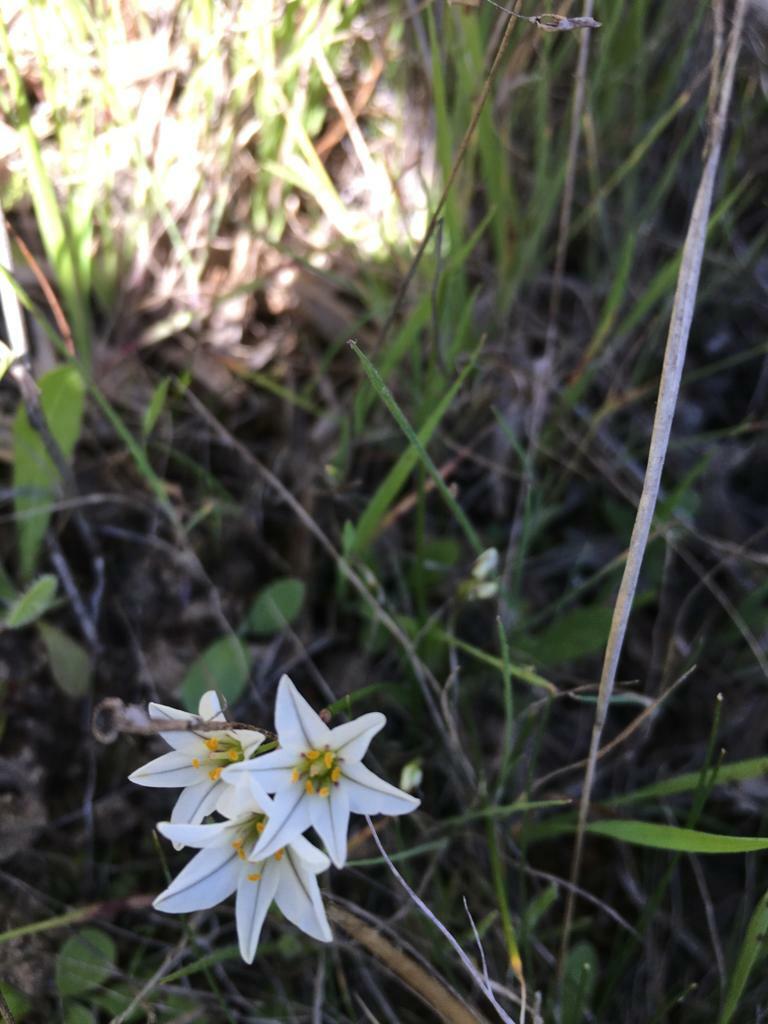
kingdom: Plantae
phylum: Tracheophyta
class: Liliopsida
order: Asparagales
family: Amaryllidaceae
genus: Tristagma
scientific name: Tristagma bivalve
